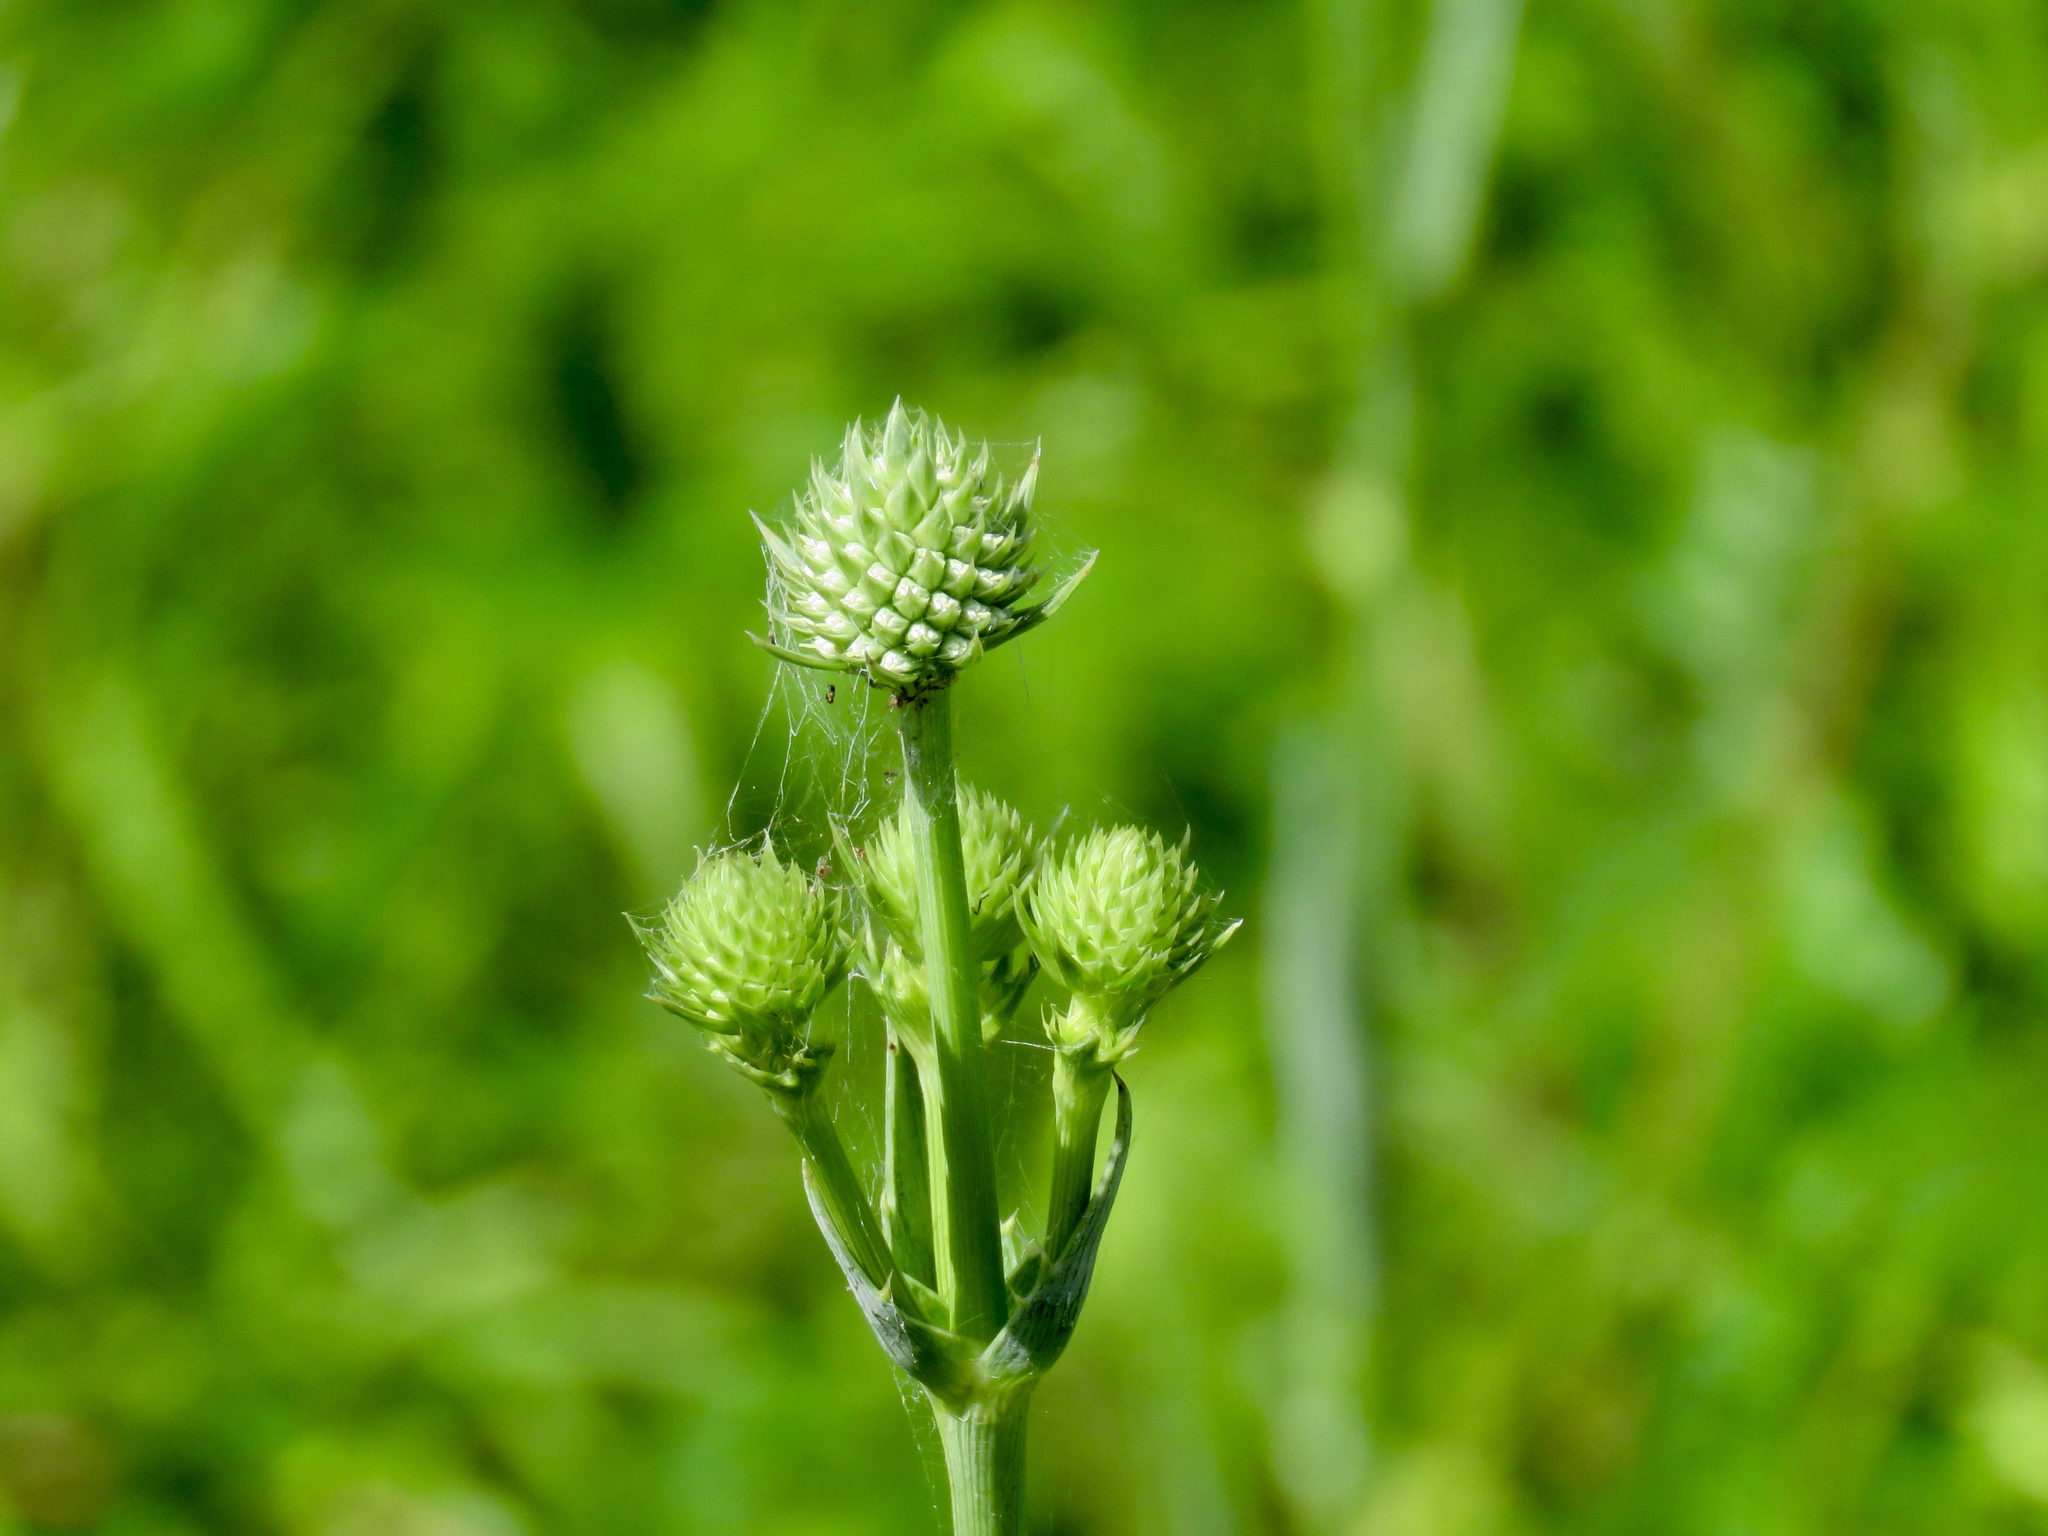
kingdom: Plantae
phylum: Tracheophyta
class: Magnoliopsida
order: Apiales
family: Apiaceae
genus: Eryngium
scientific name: Eryngium yuccifolium
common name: Button eryngo
